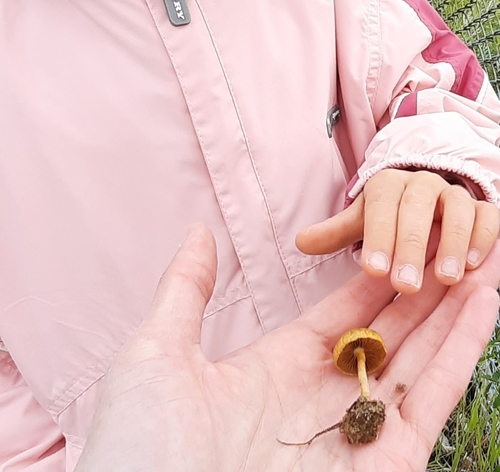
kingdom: Fungi
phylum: Basidiomycota
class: Agaricomycetes
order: Agaricales
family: Strophariaceae
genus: Agrocybe
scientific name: Agrocybe pediades
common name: Common fieldcap
